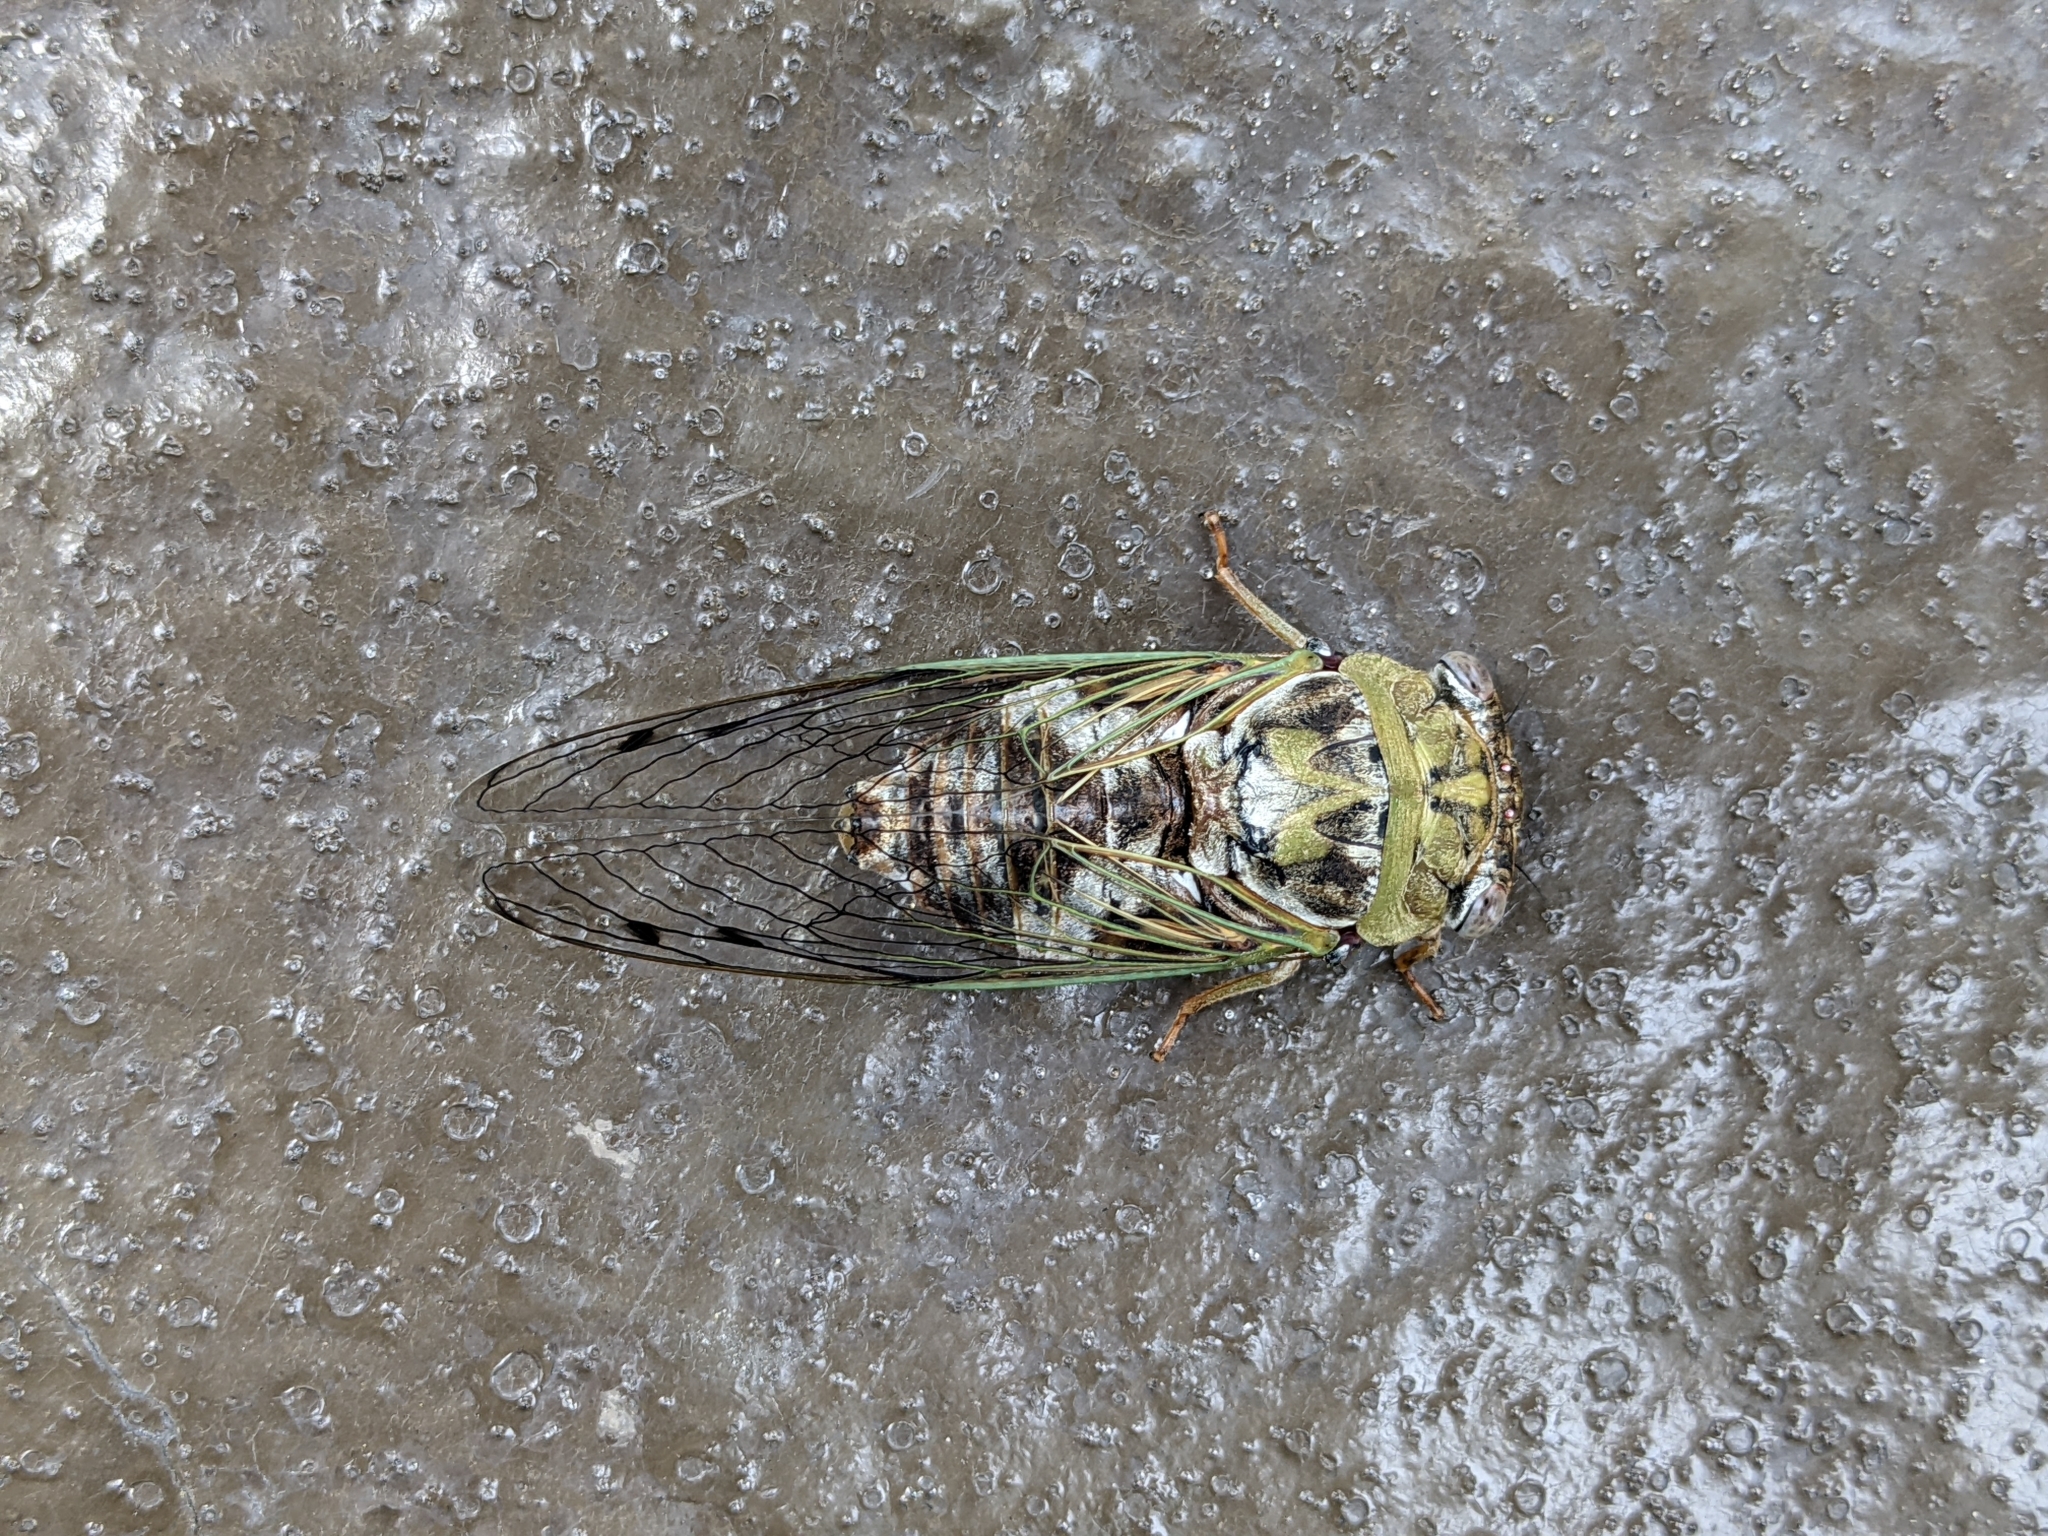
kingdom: Animalia
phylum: Arthropoda
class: Insecta
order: Hemiptera
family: Cicadidae
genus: Megatibicen
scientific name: Megatibicen resh
